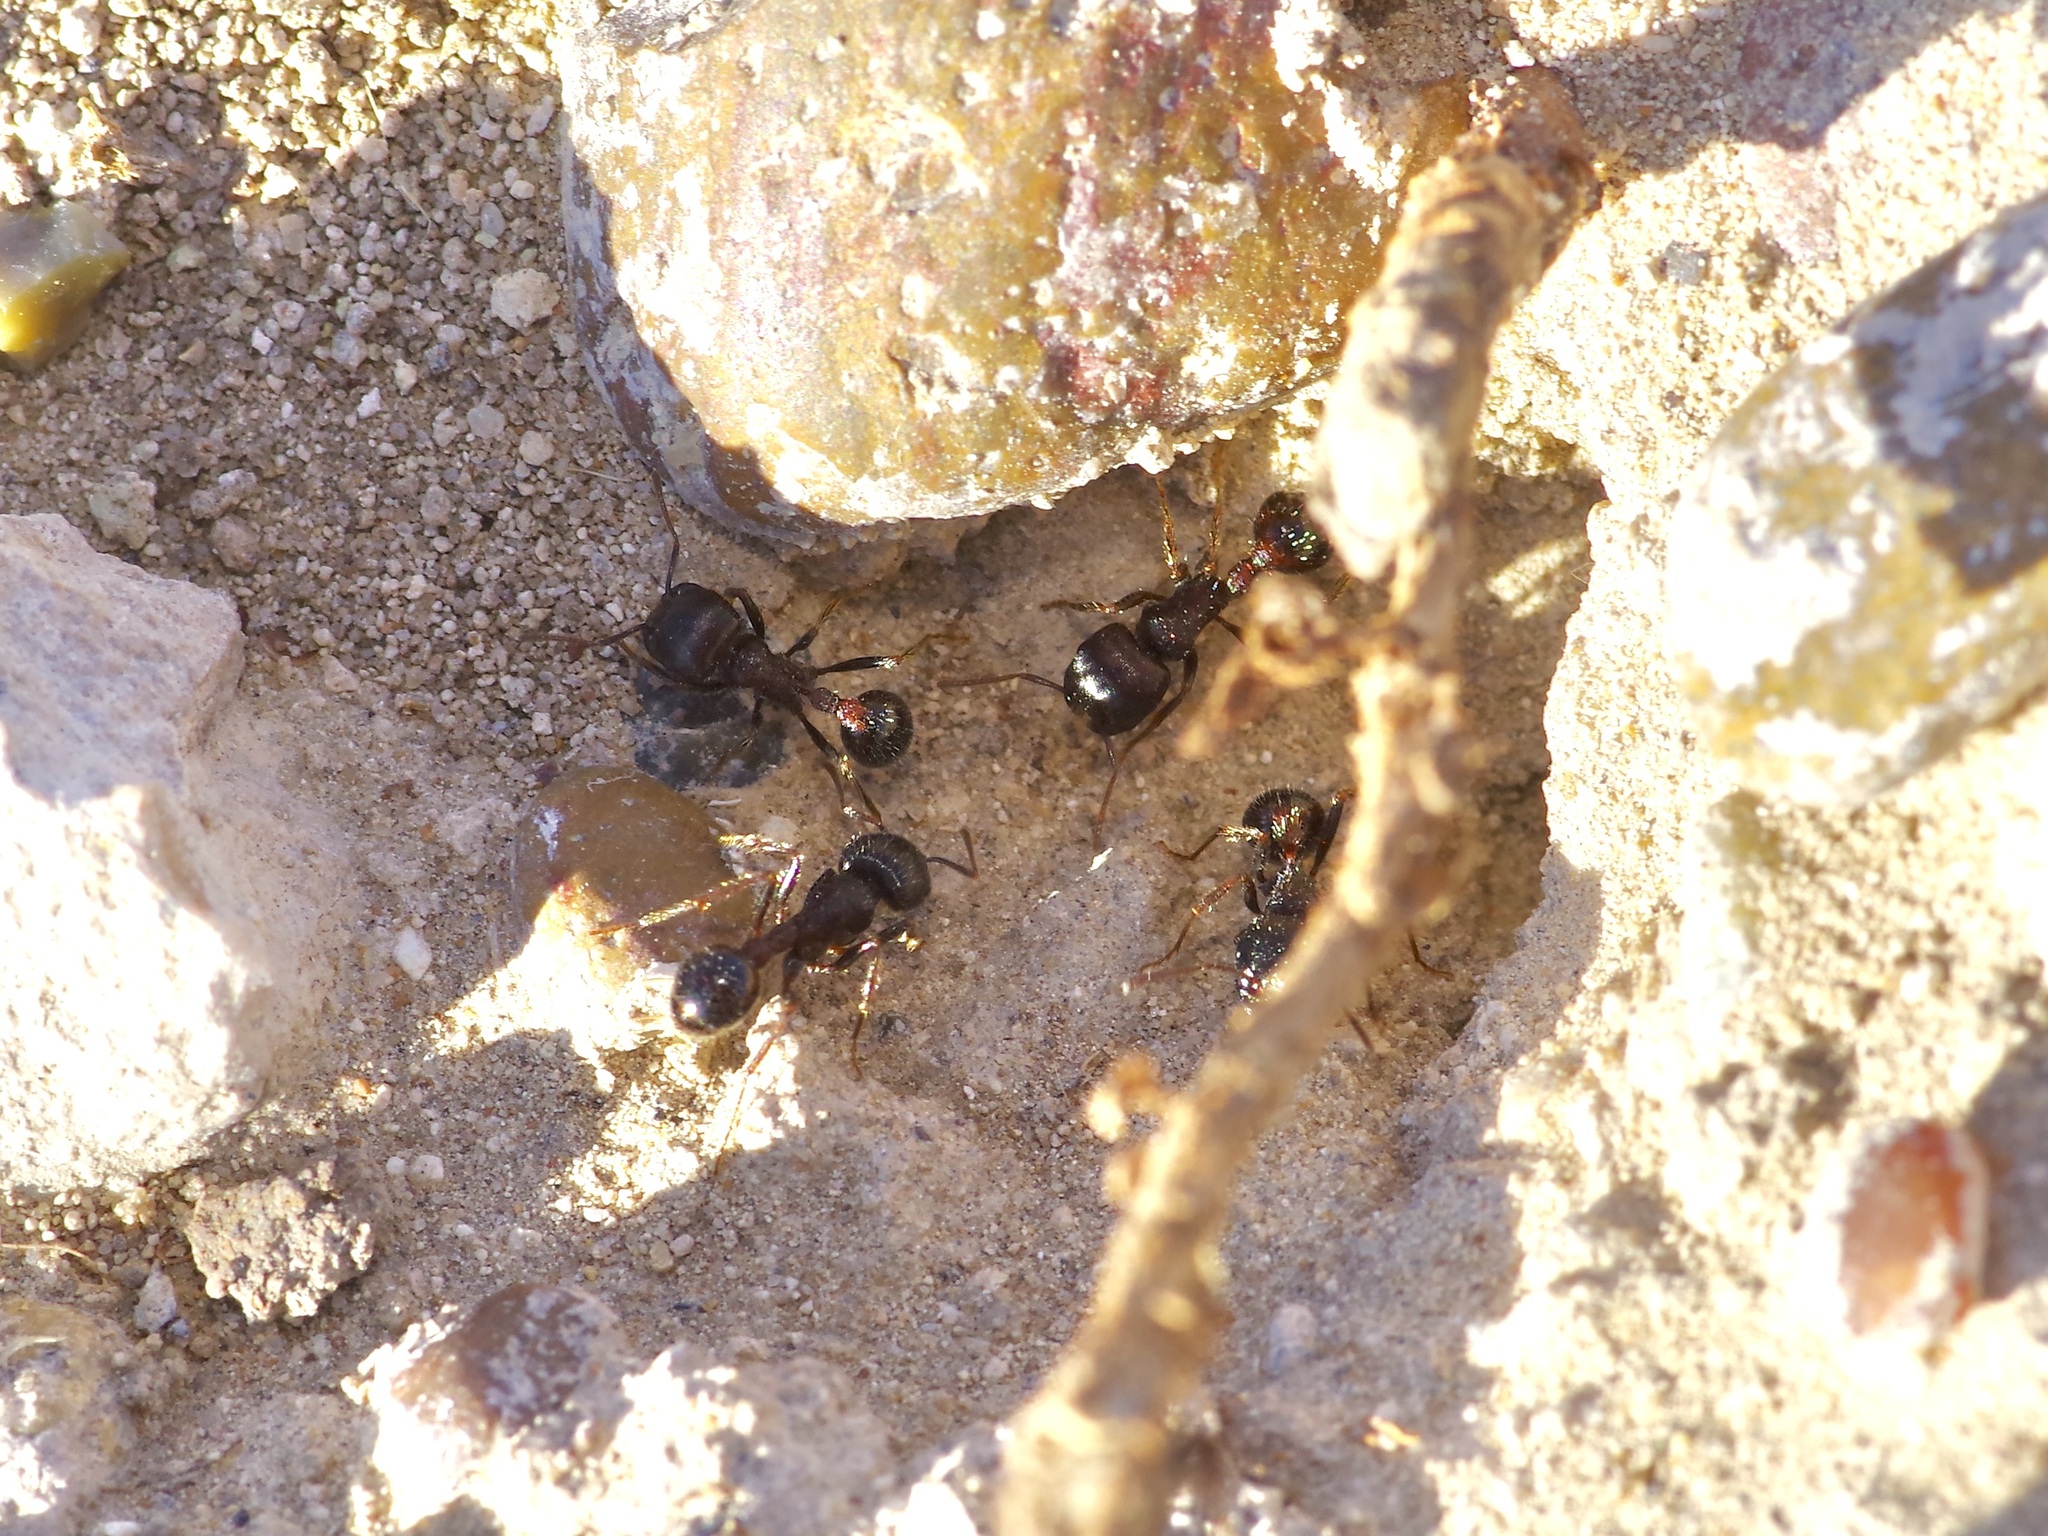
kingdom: Animalia
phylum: Arthropoda
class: Insecta
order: Hymenoptera
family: Formicidae
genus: Pogonomyrmex
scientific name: Pogonomyrmex rugosus
